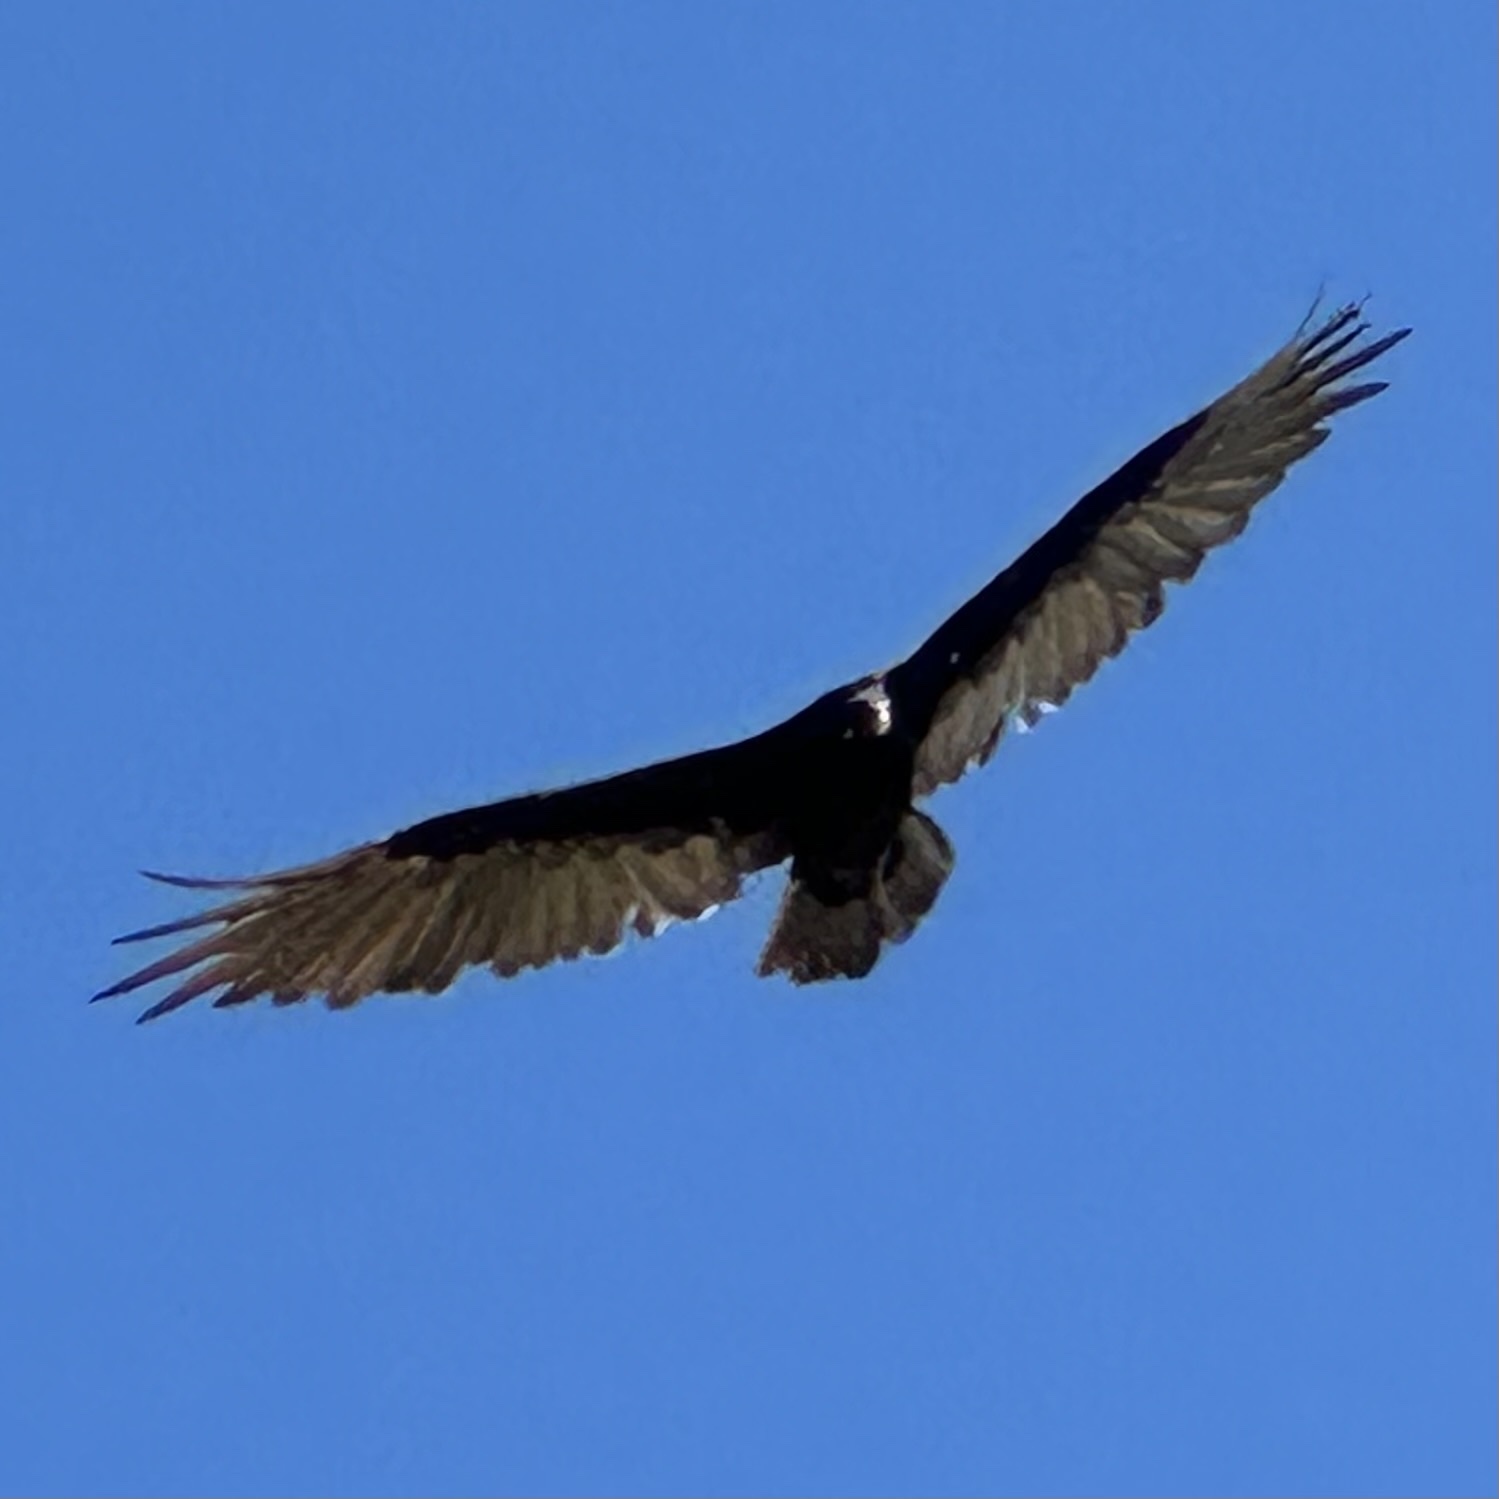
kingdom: Animalia
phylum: Chordata
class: Aves
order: Accipitriformes
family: Cathartidae
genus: Cathartes
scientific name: Cathartes aura
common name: Turkey vulture
